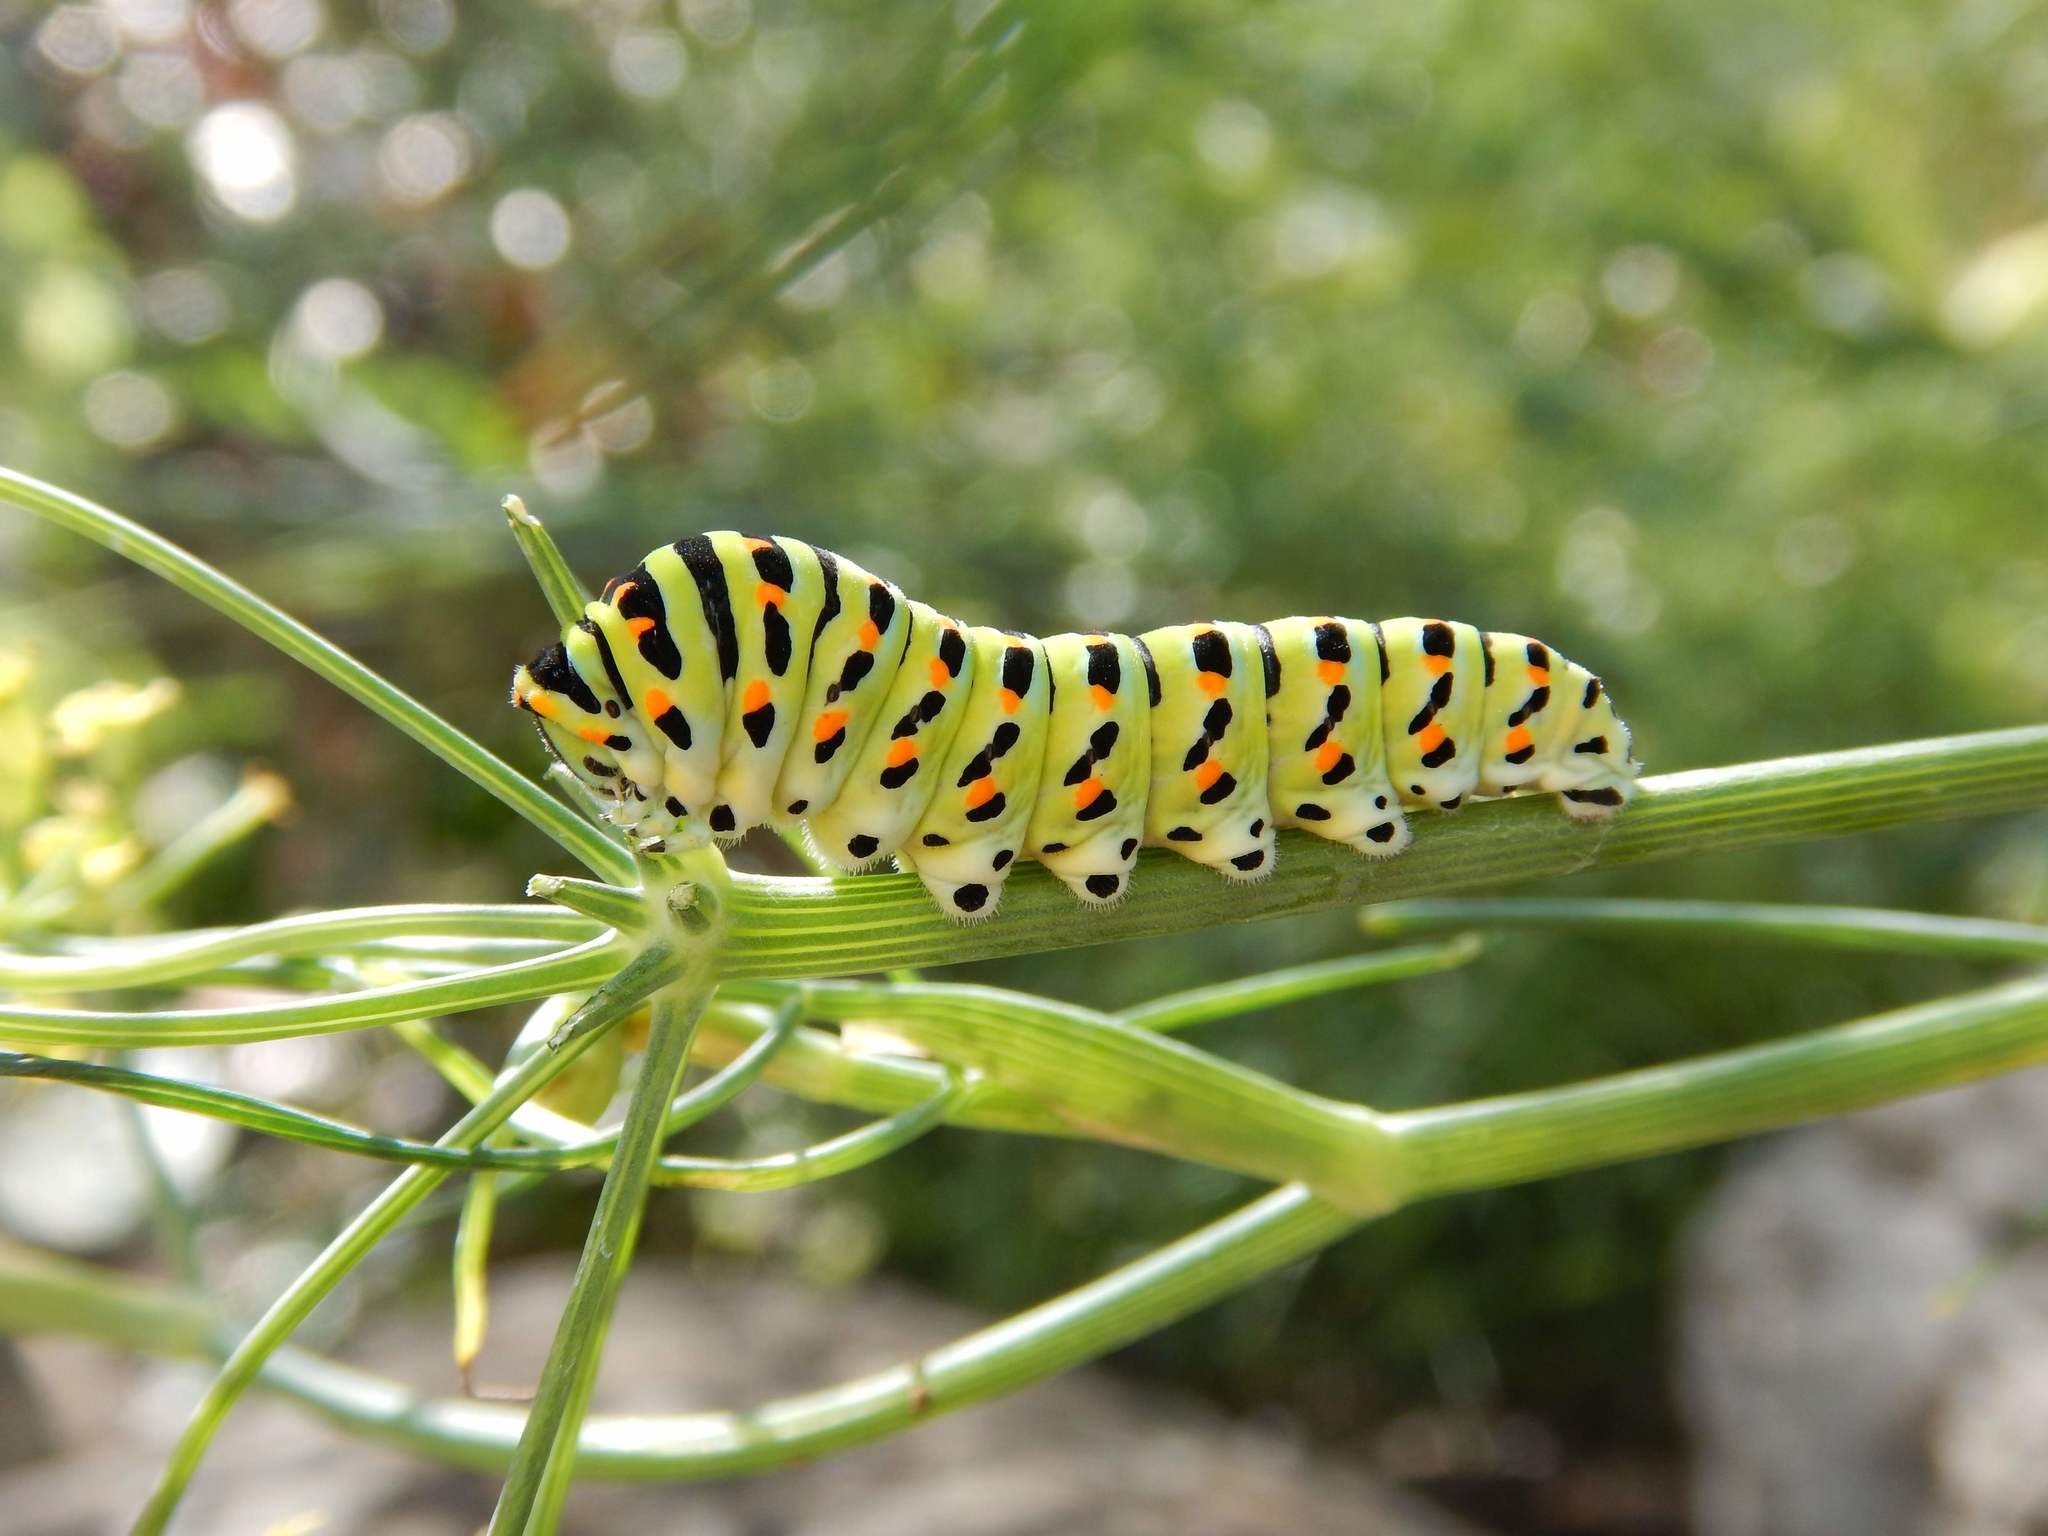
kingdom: Animalia
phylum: Arthropoda
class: Insecta
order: Lepidoptera
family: Papilionidae
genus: Papilio
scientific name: Papilio machaon
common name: Swallowtail
